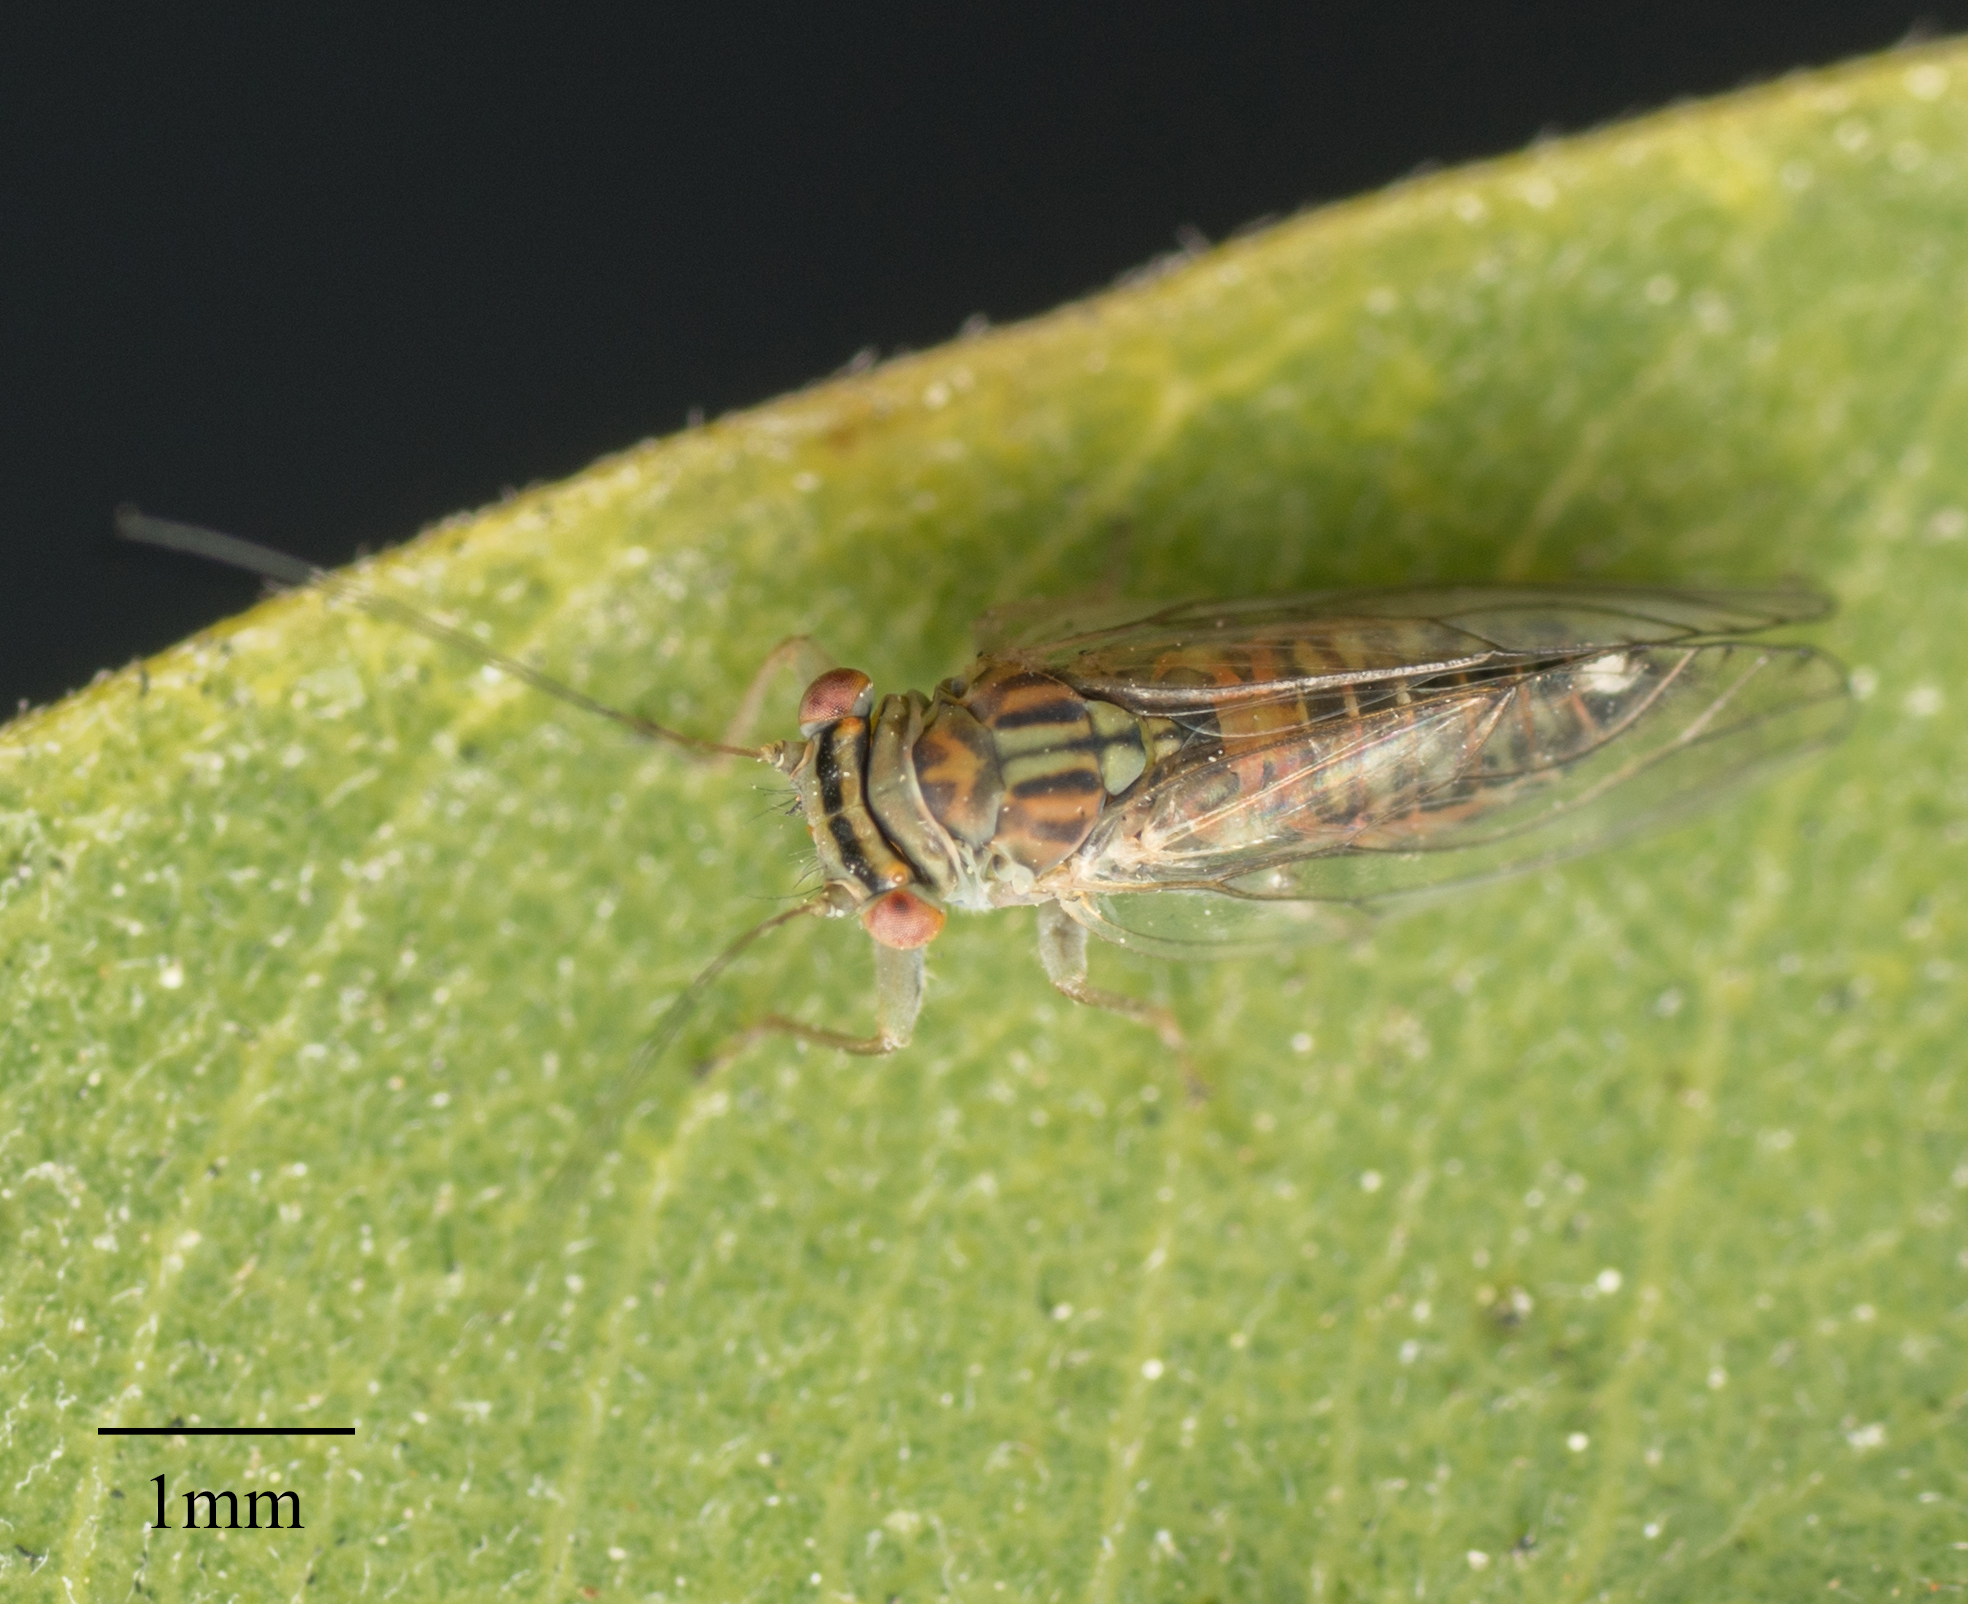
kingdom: Animalia
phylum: Arthropoda
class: Insecta
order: Hemiptera
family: Psyllidae
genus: Platycorypha
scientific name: Platycorypha nigrivirga
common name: Tipu psyllid
